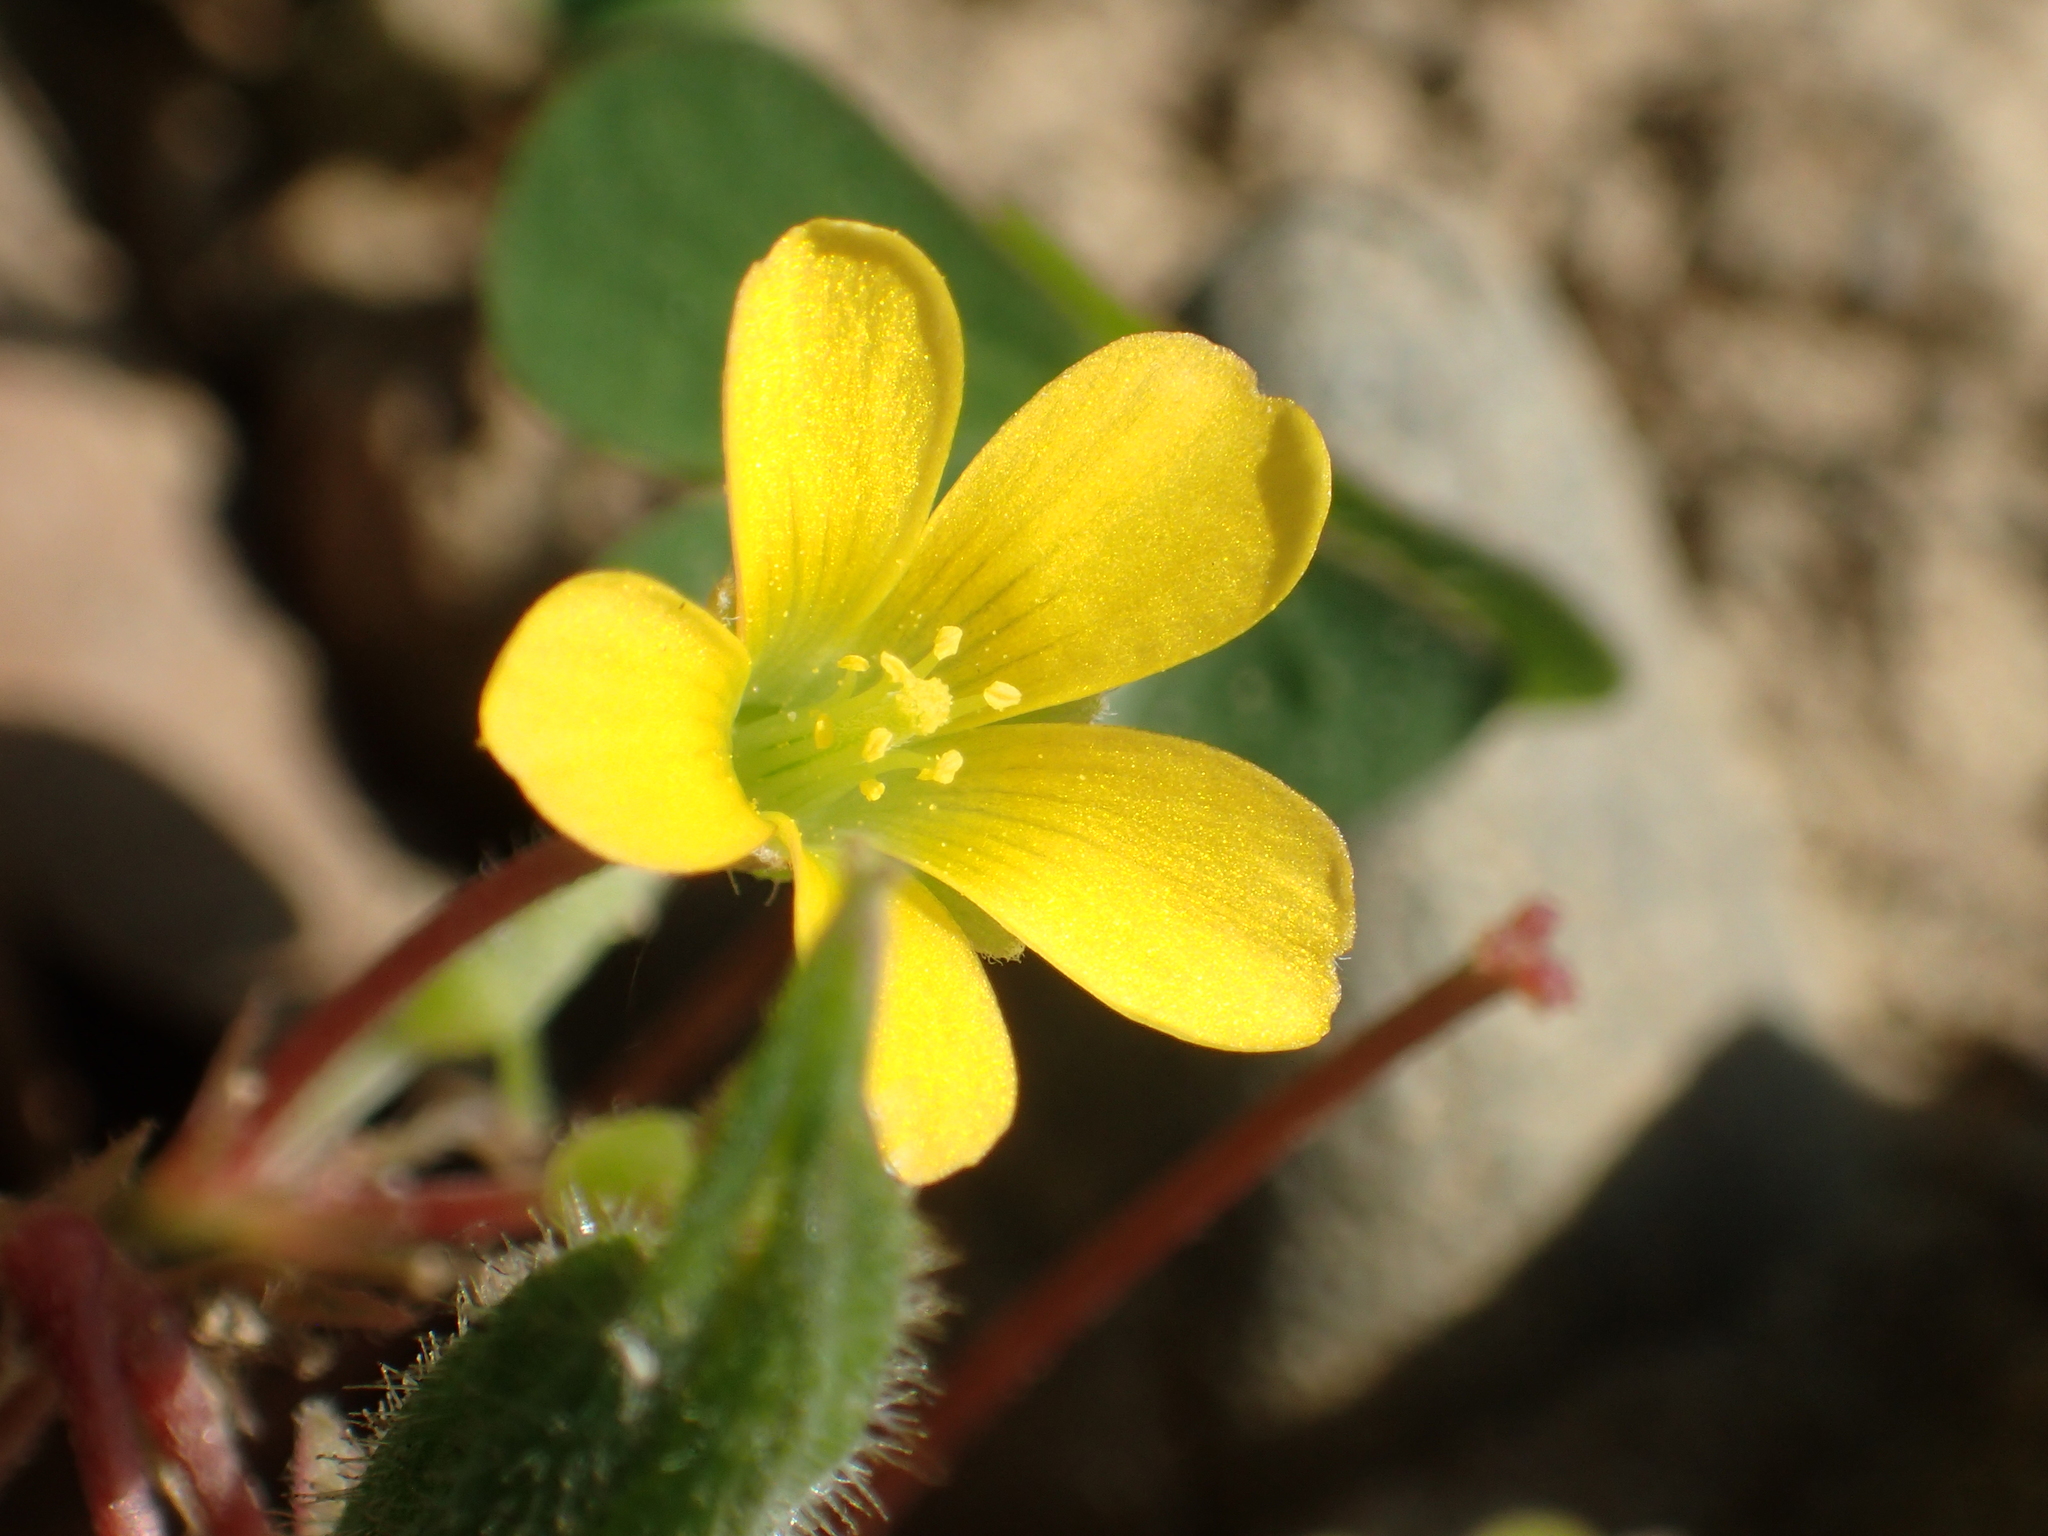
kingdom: Plantae
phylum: Tracheophyta
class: Magnoliopsida
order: Oxalidales
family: Oxalidaceae
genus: Oxalis
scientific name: Oxalis corniculata
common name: Procumbent yellow-sorrel
